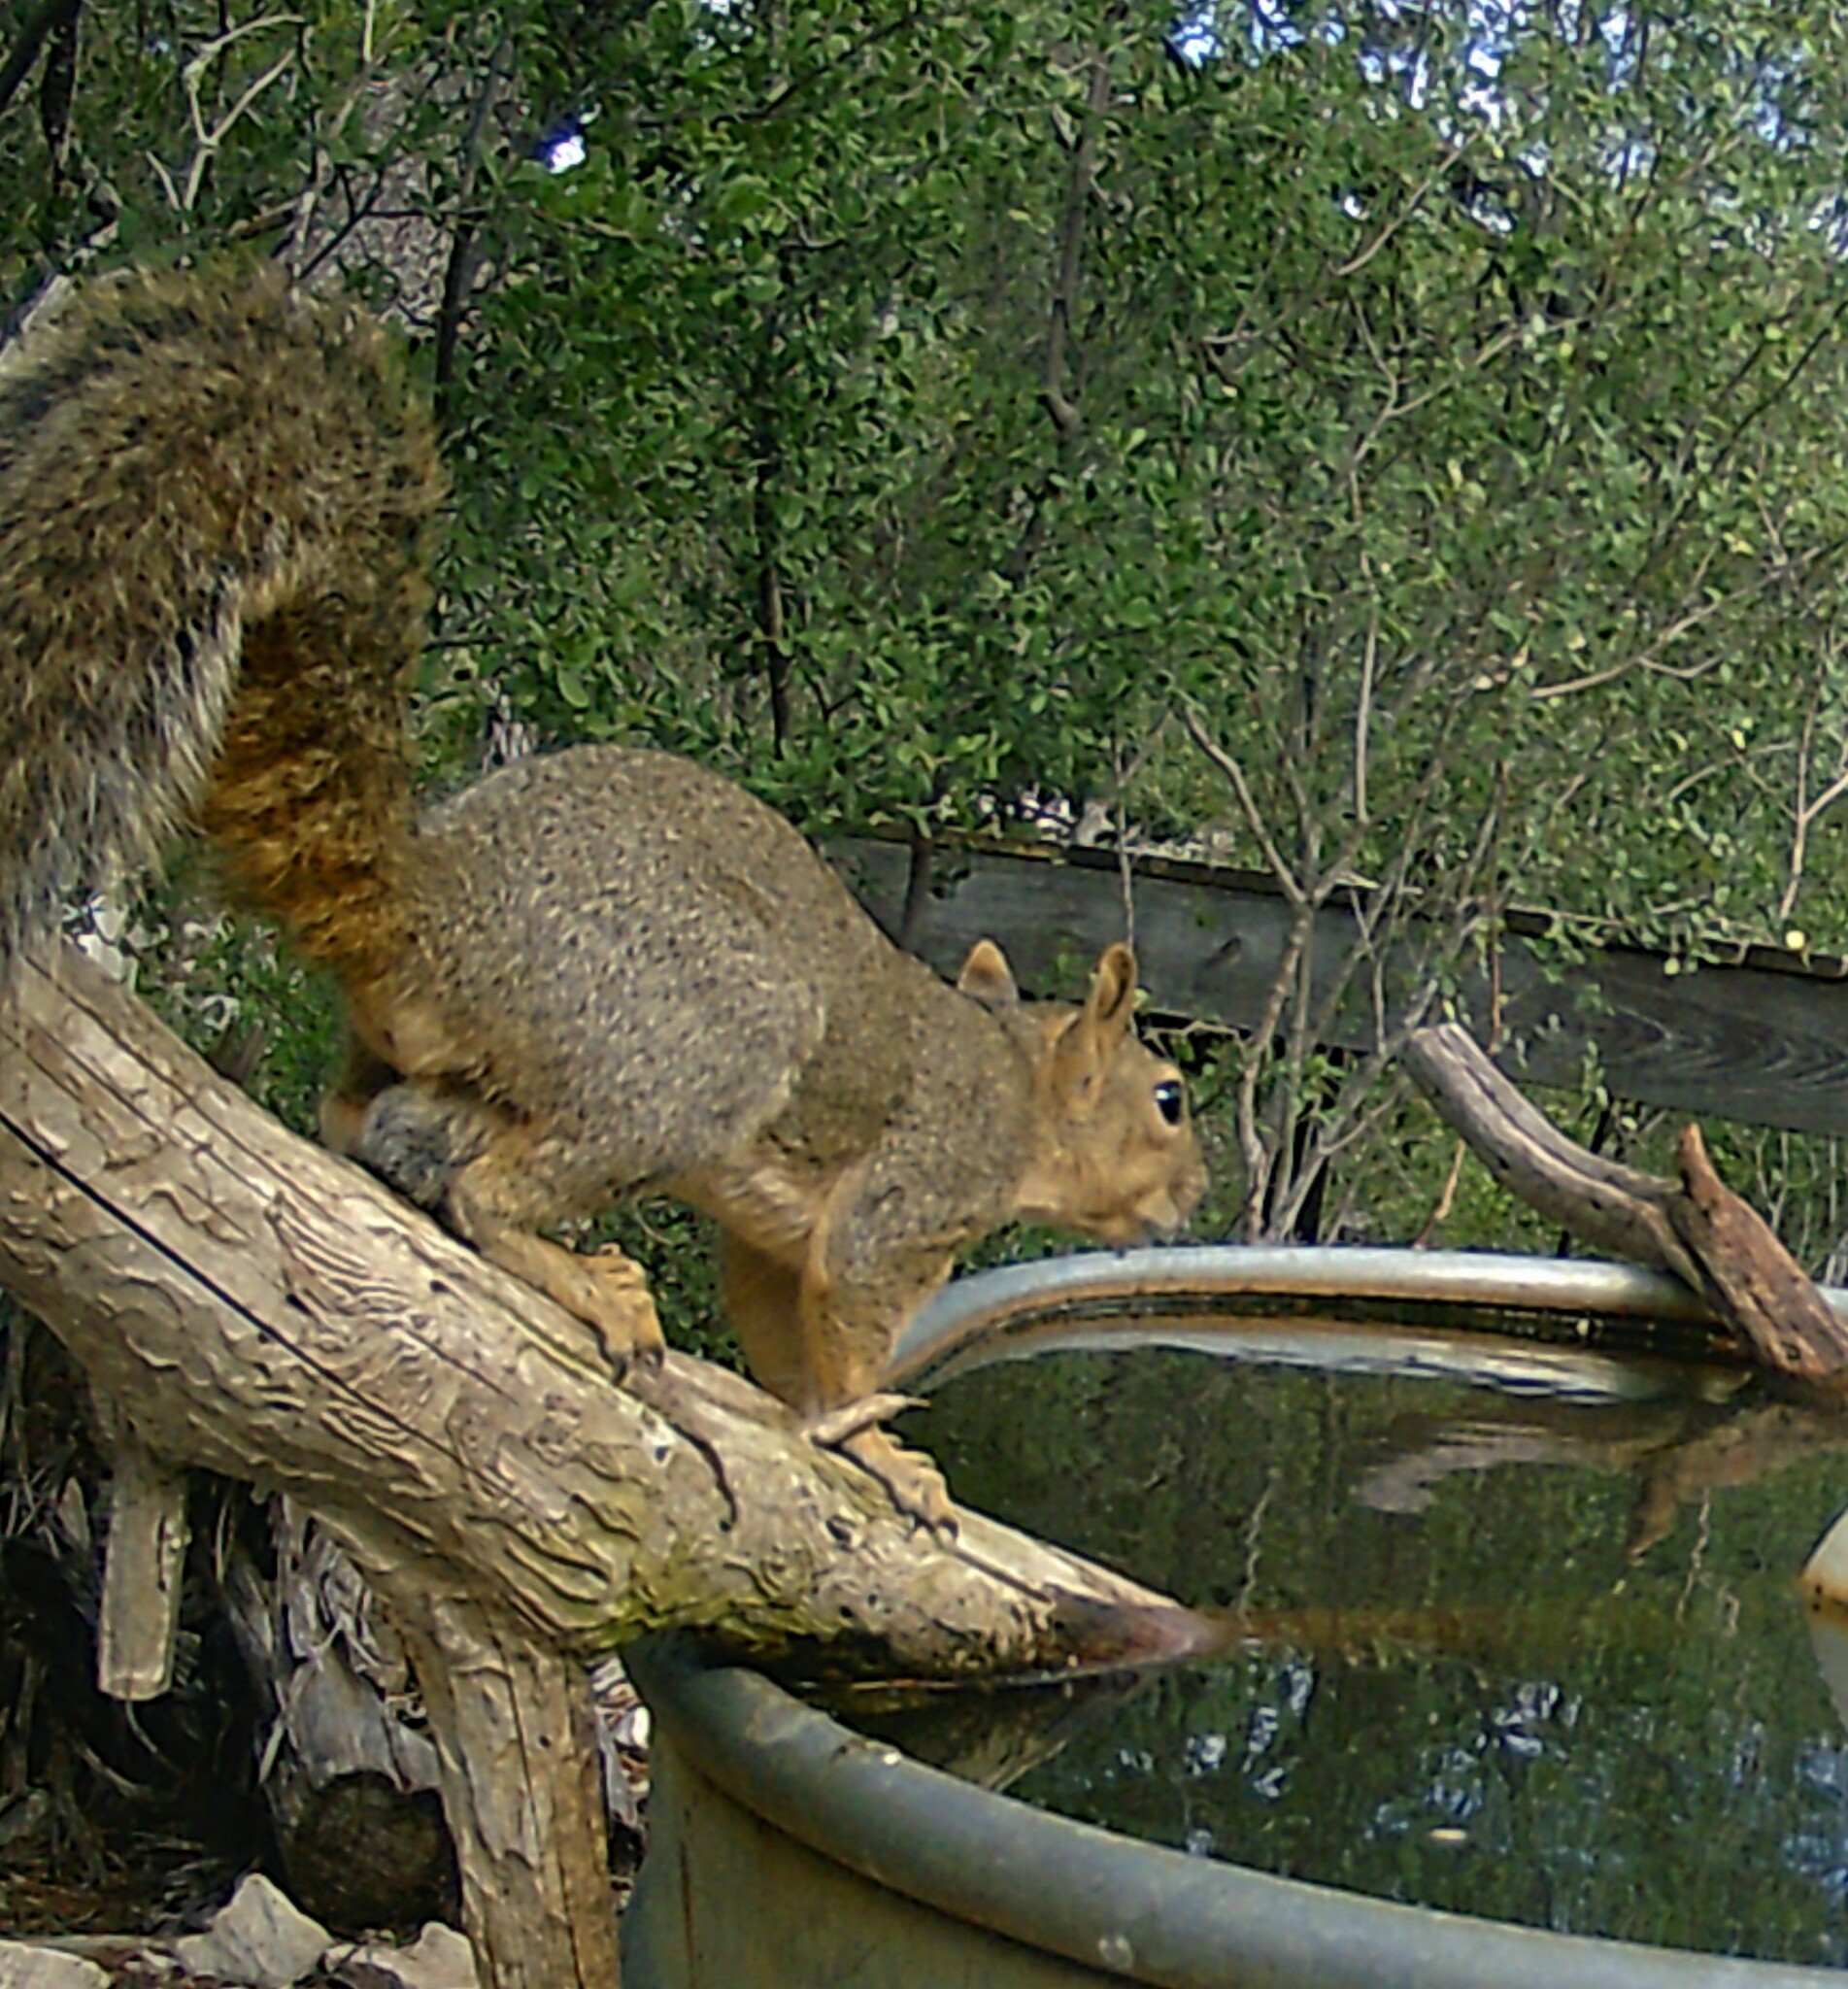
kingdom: Animalia
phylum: Chordata
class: Mammalia
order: Rodentia
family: Sciuridae
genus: Sciurus
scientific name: Sciurus niger
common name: Fox squirrel
